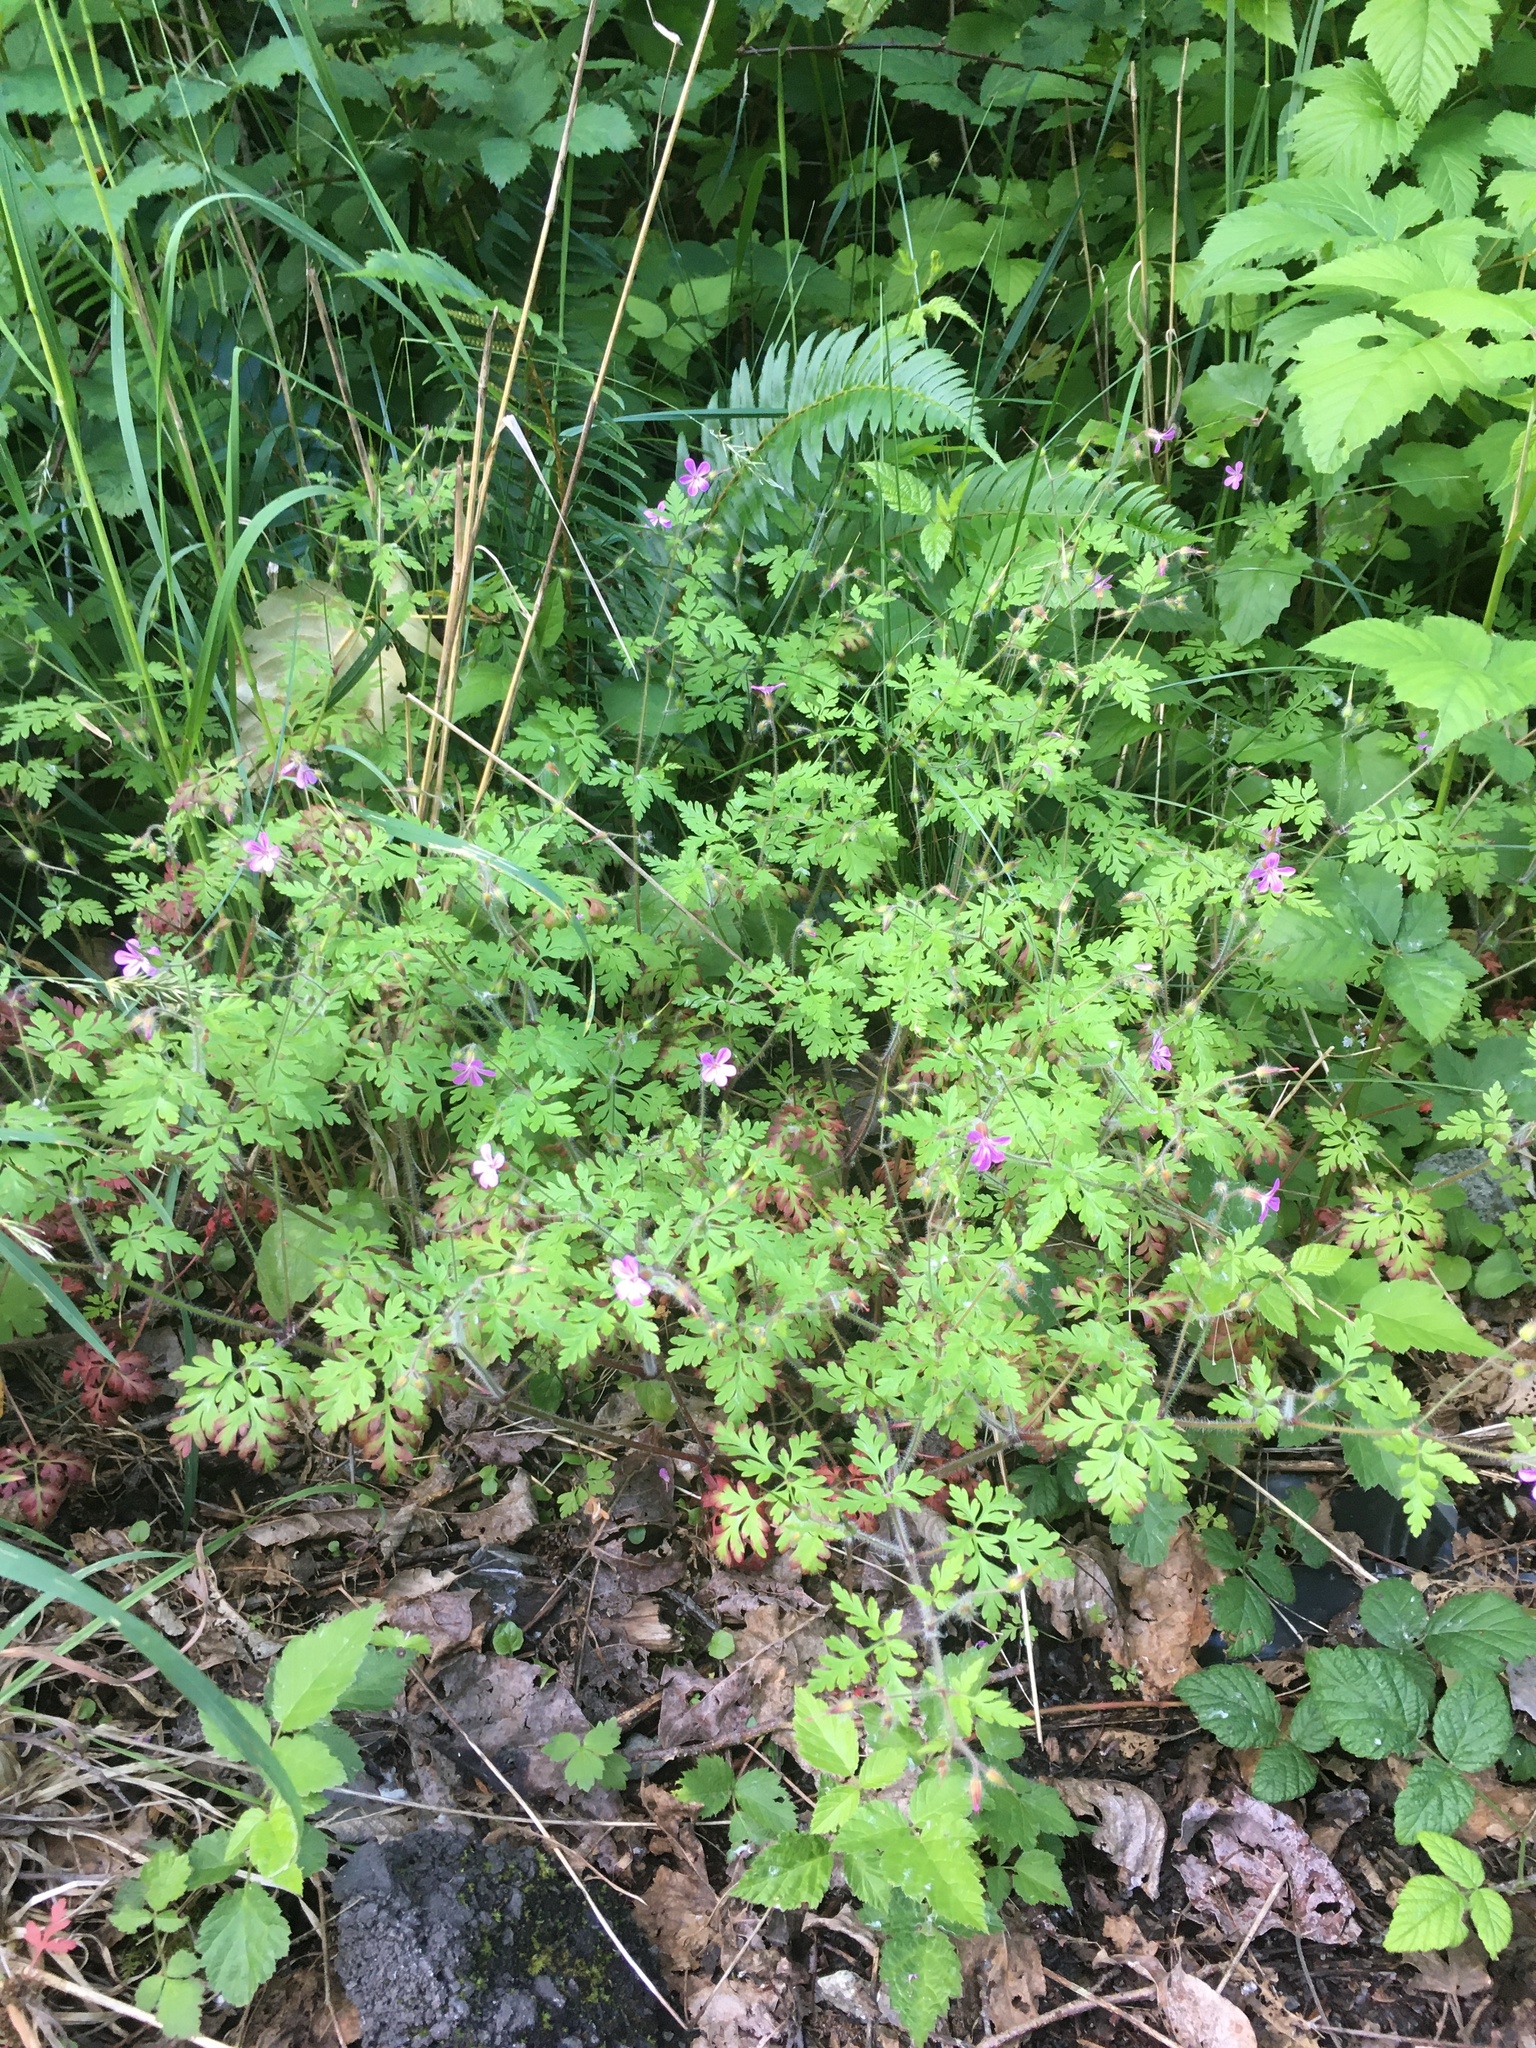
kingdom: Plantae
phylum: Tracheophyta
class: Magnoliopsida
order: Geraniales
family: Geraniaceae
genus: Geranium
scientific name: Geranium robertianum
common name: Herb-robert
